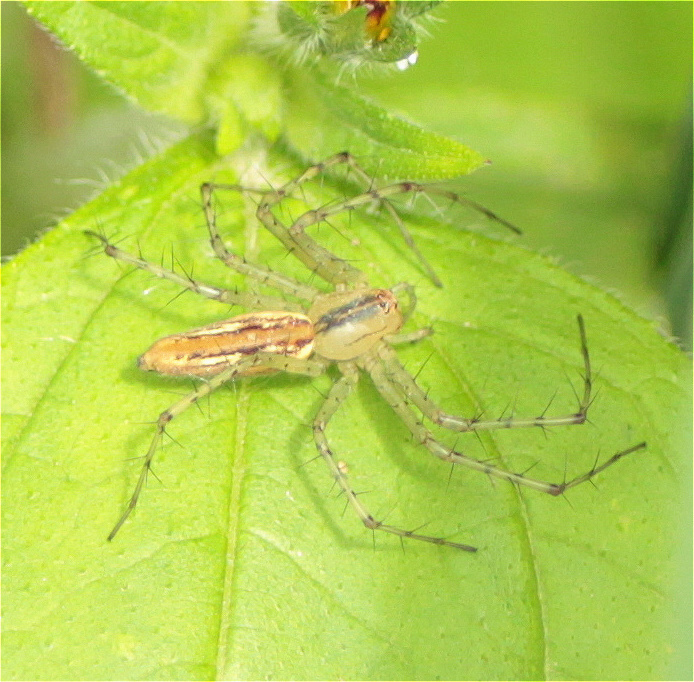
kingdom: Animalia
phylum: Arthropoda
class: Arachnida
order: Araneae
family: Oxyopidae
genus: Peucetia
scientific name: Peucetia rubrolineata
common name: Lynx spiders
